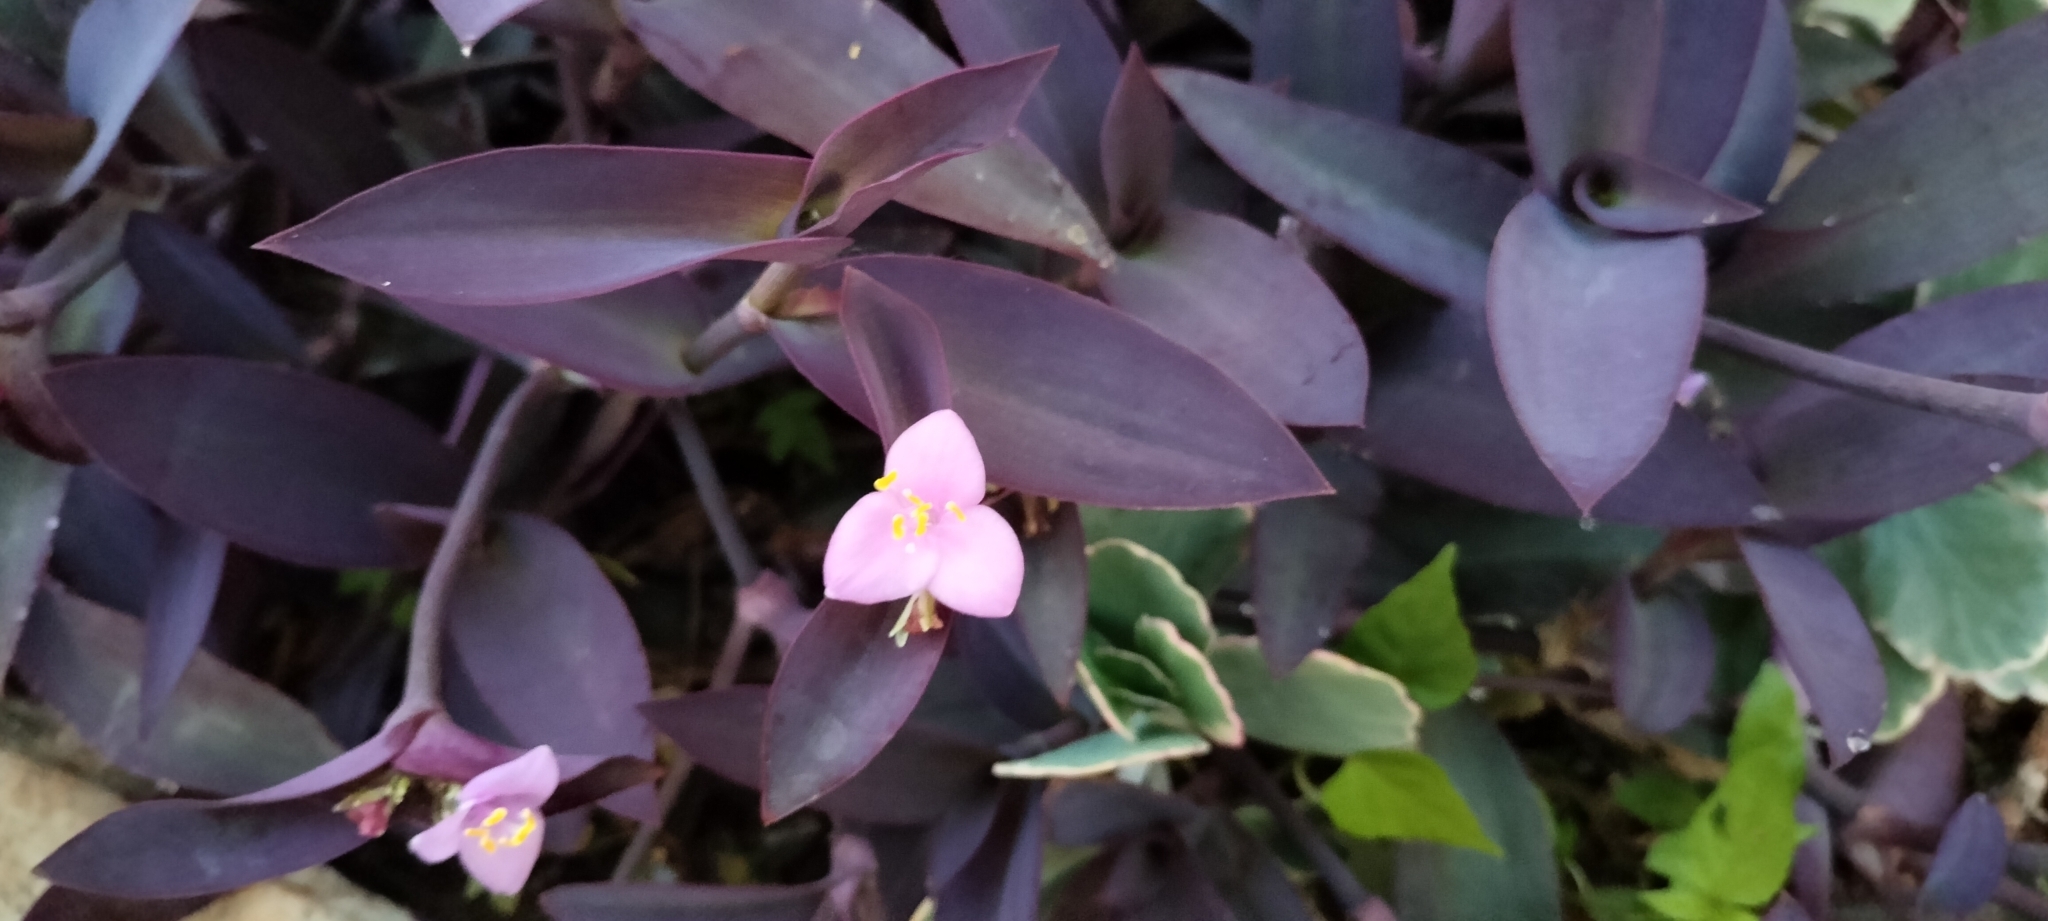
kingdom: Plantae
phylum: Tracheophyta
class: Liliopsida
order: Commelinales
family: Commelinaceae
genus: Tradescantia
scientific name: Tradescantia pallida
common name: Purpleheart
